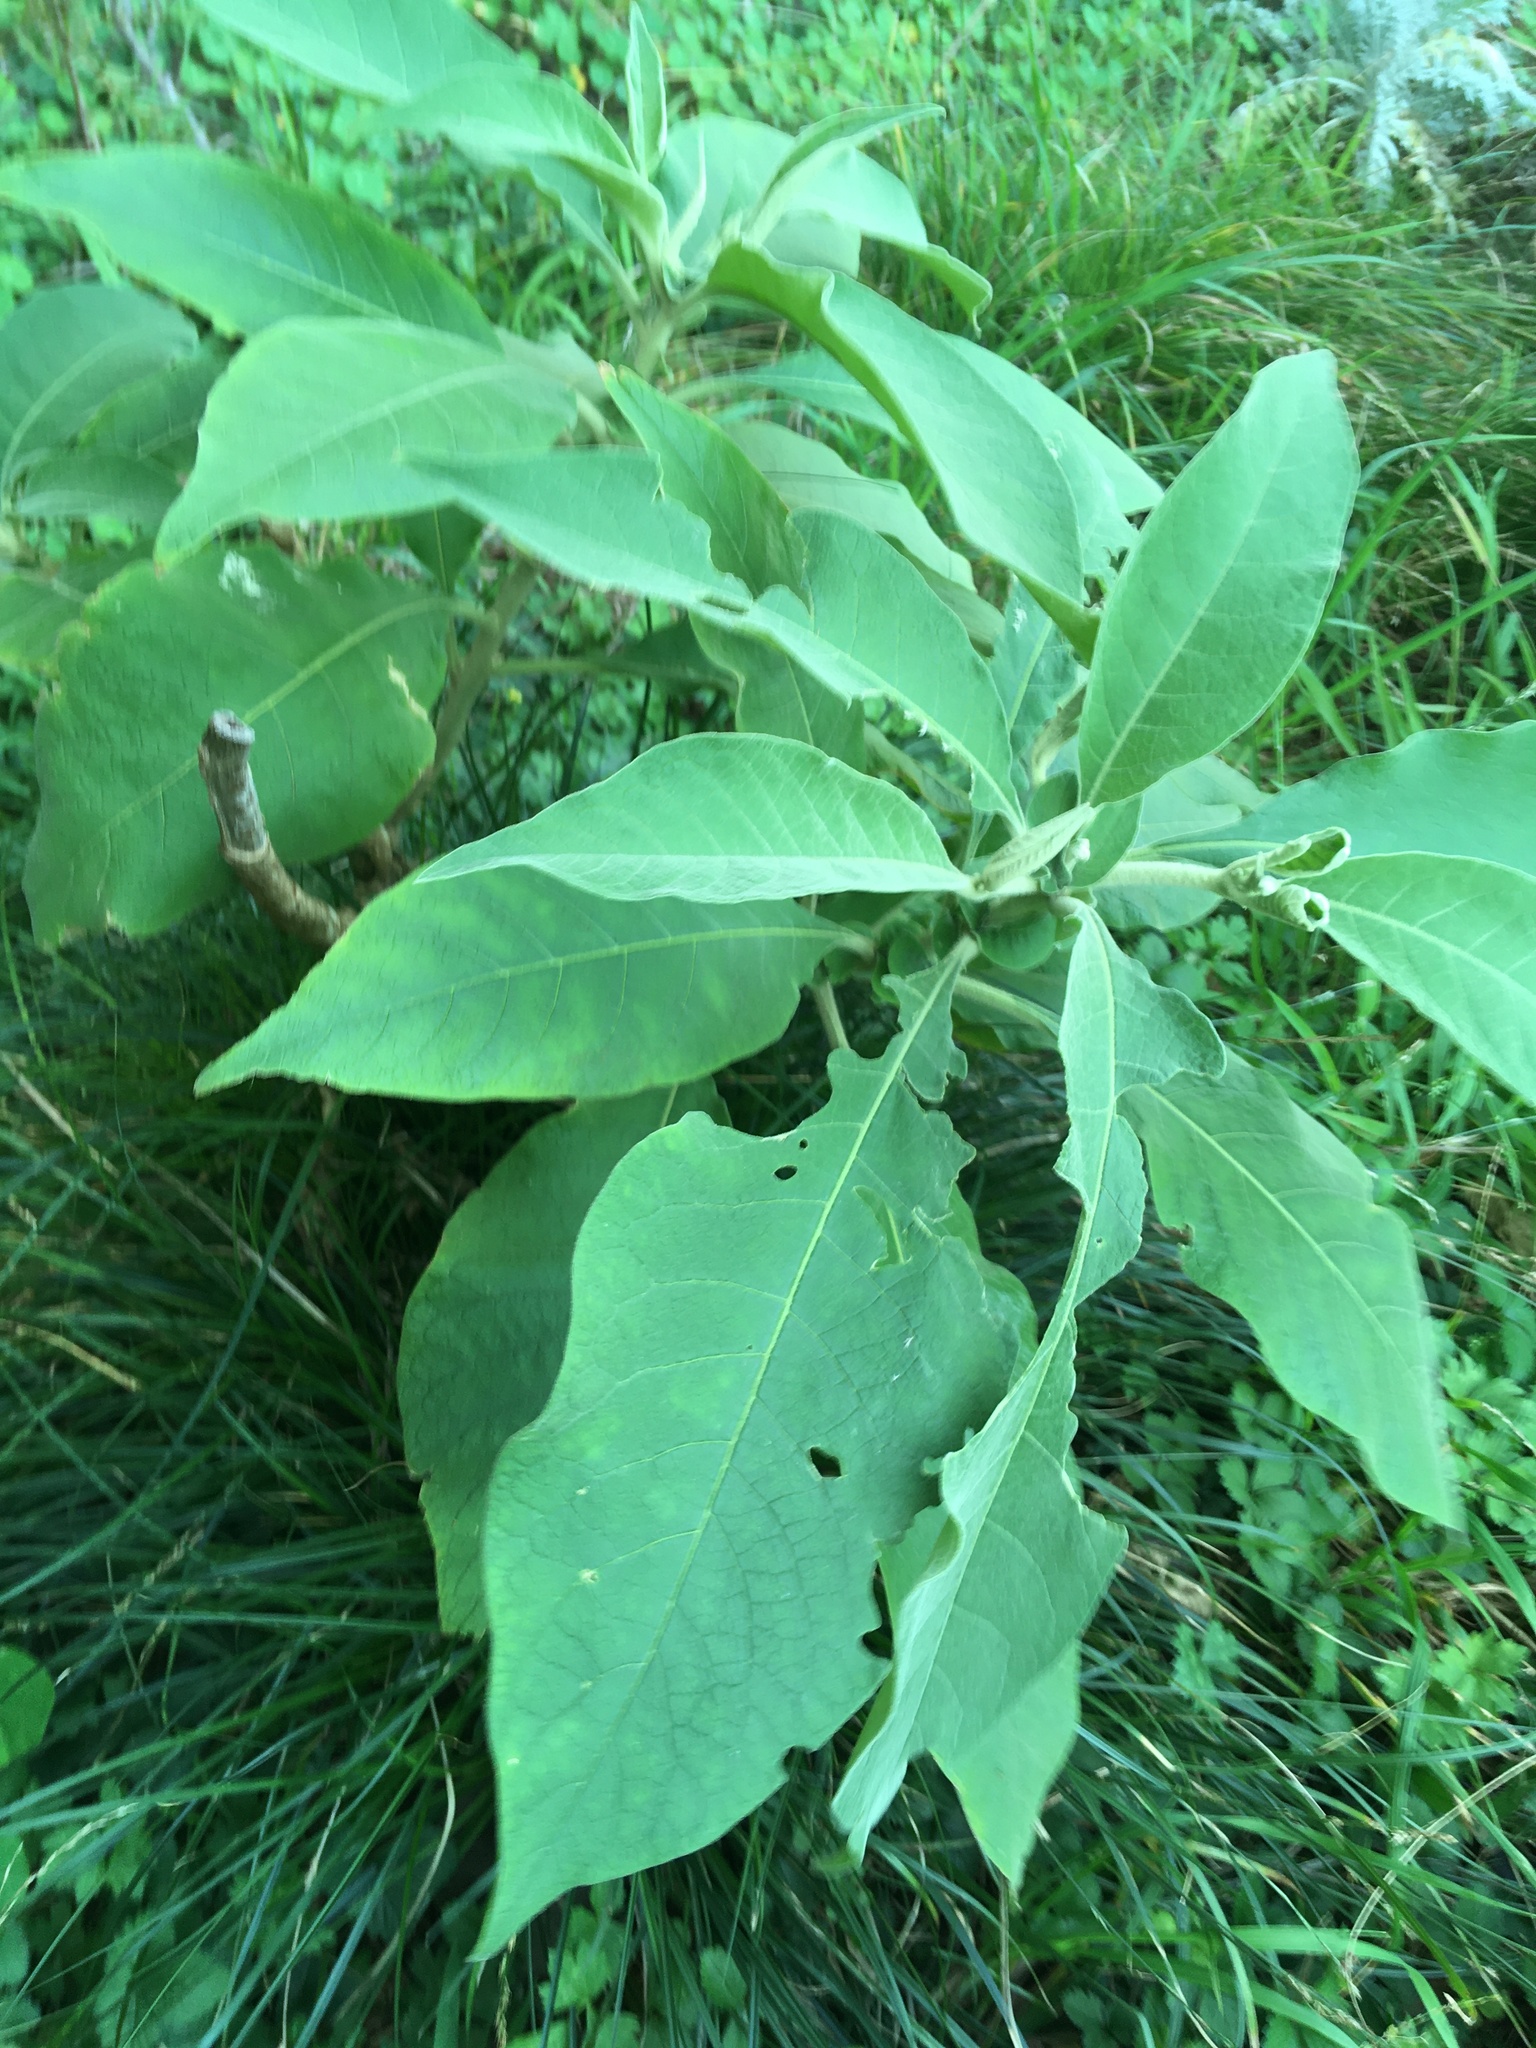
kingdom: Plantae
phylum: Tracheophyta
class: Magnoliopsida
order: Solanales
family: Solanaceae
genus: Solanum
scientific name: Solanum mauritianum
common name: Earleaf nightshade
